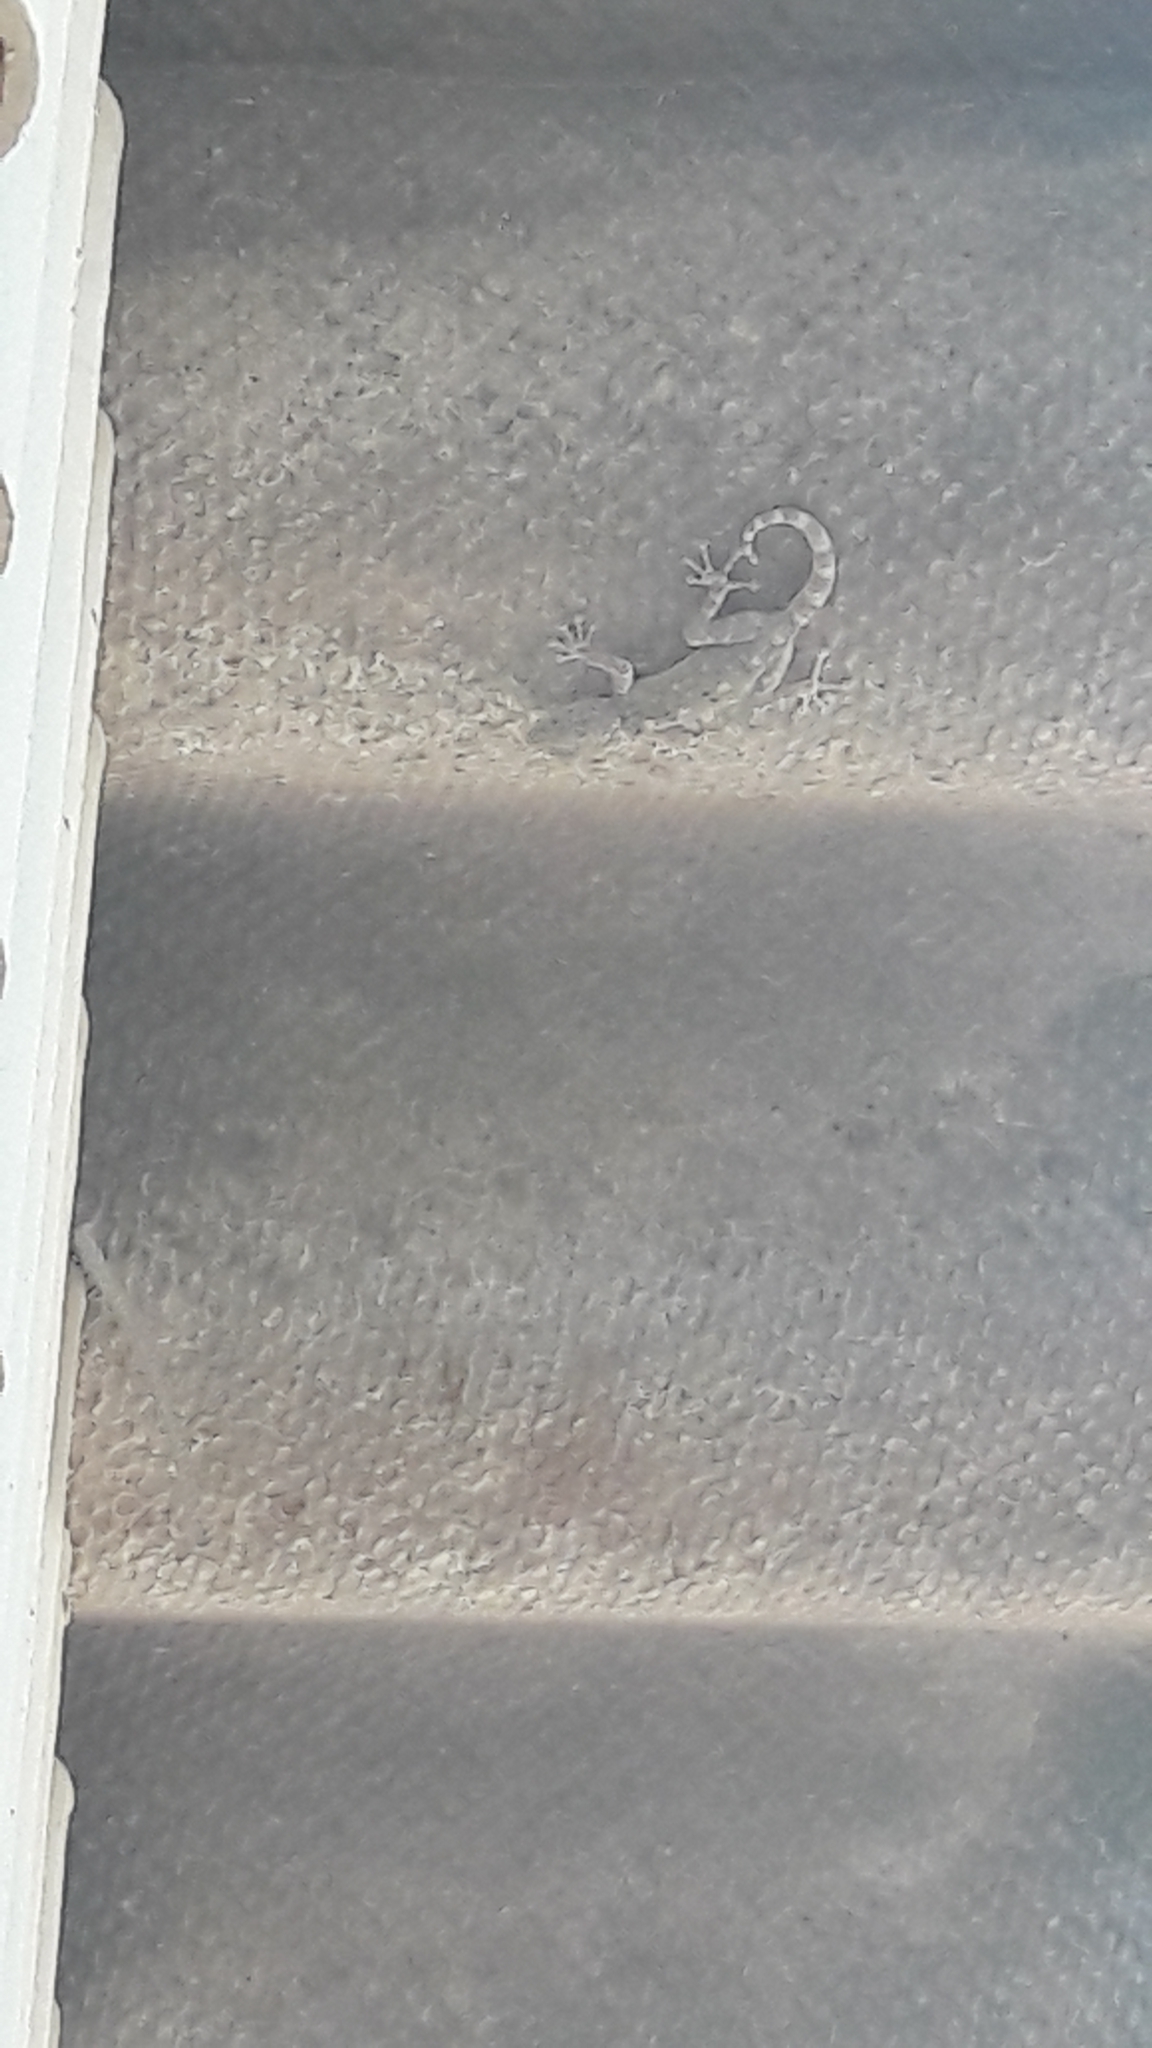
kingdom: Animalia
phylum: Chordata
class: Squamata
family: Phyllodactylidae
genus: Ptyodactylus
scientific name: Ptyodactylus guttatus
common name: Sinai fan-fingered gecko
